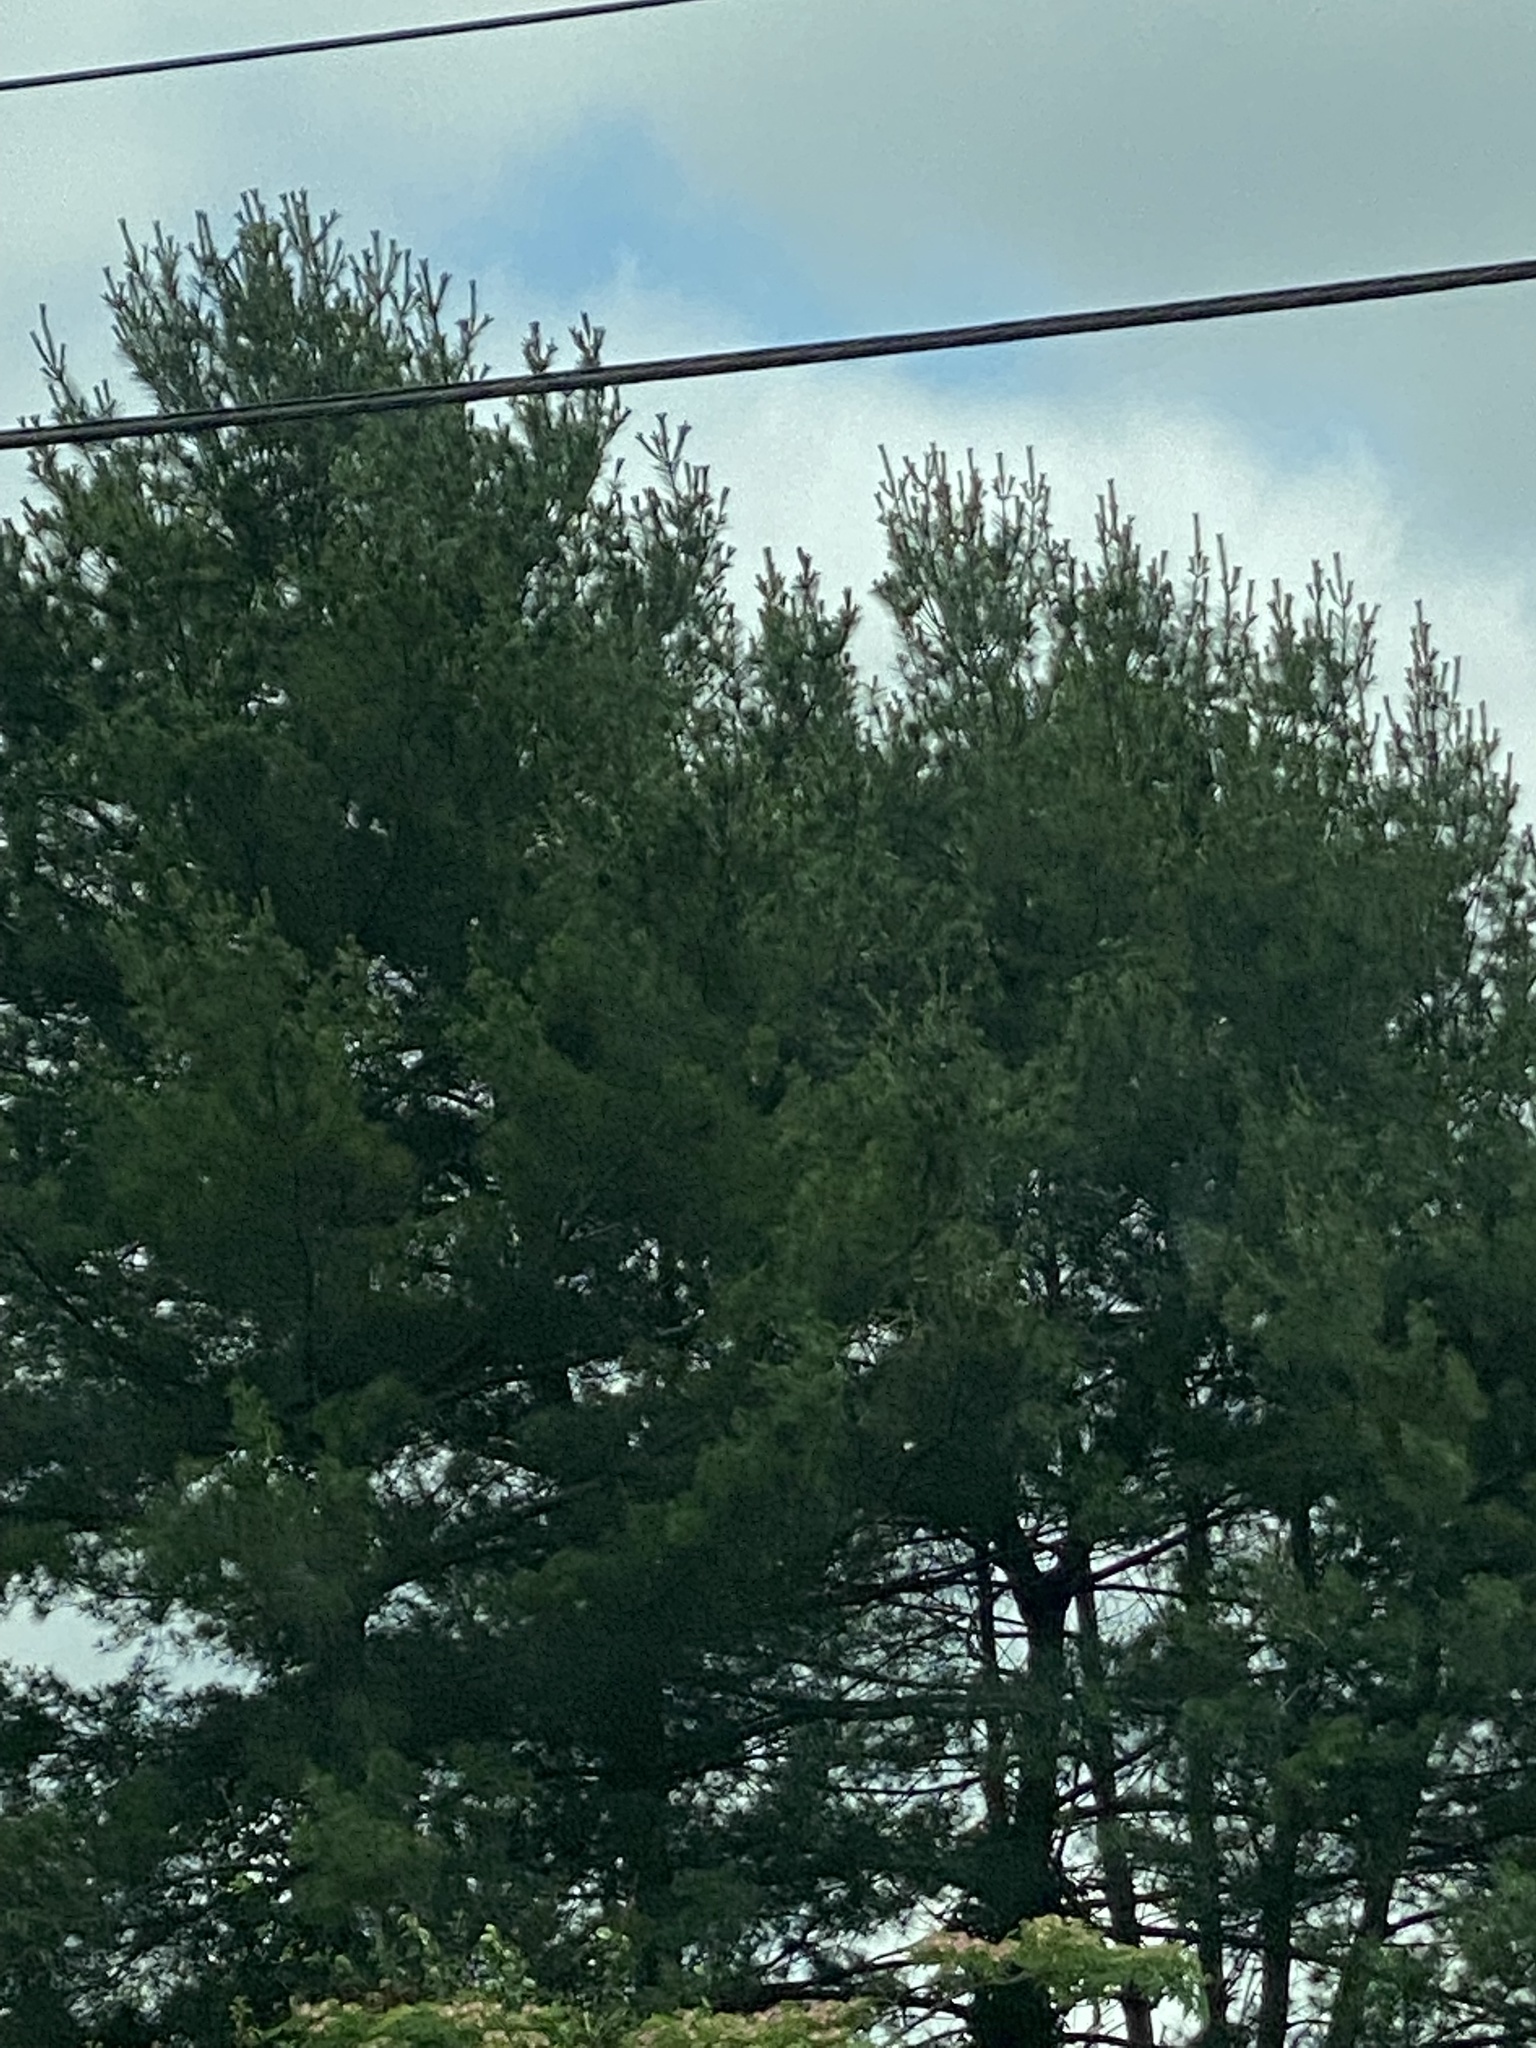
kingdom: Plantae
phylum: Tracheophyta
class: Pinopsida
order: Pinales
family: Pinaceae
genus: Pinus
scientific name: Pinus strobus
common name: Weymouth pine
